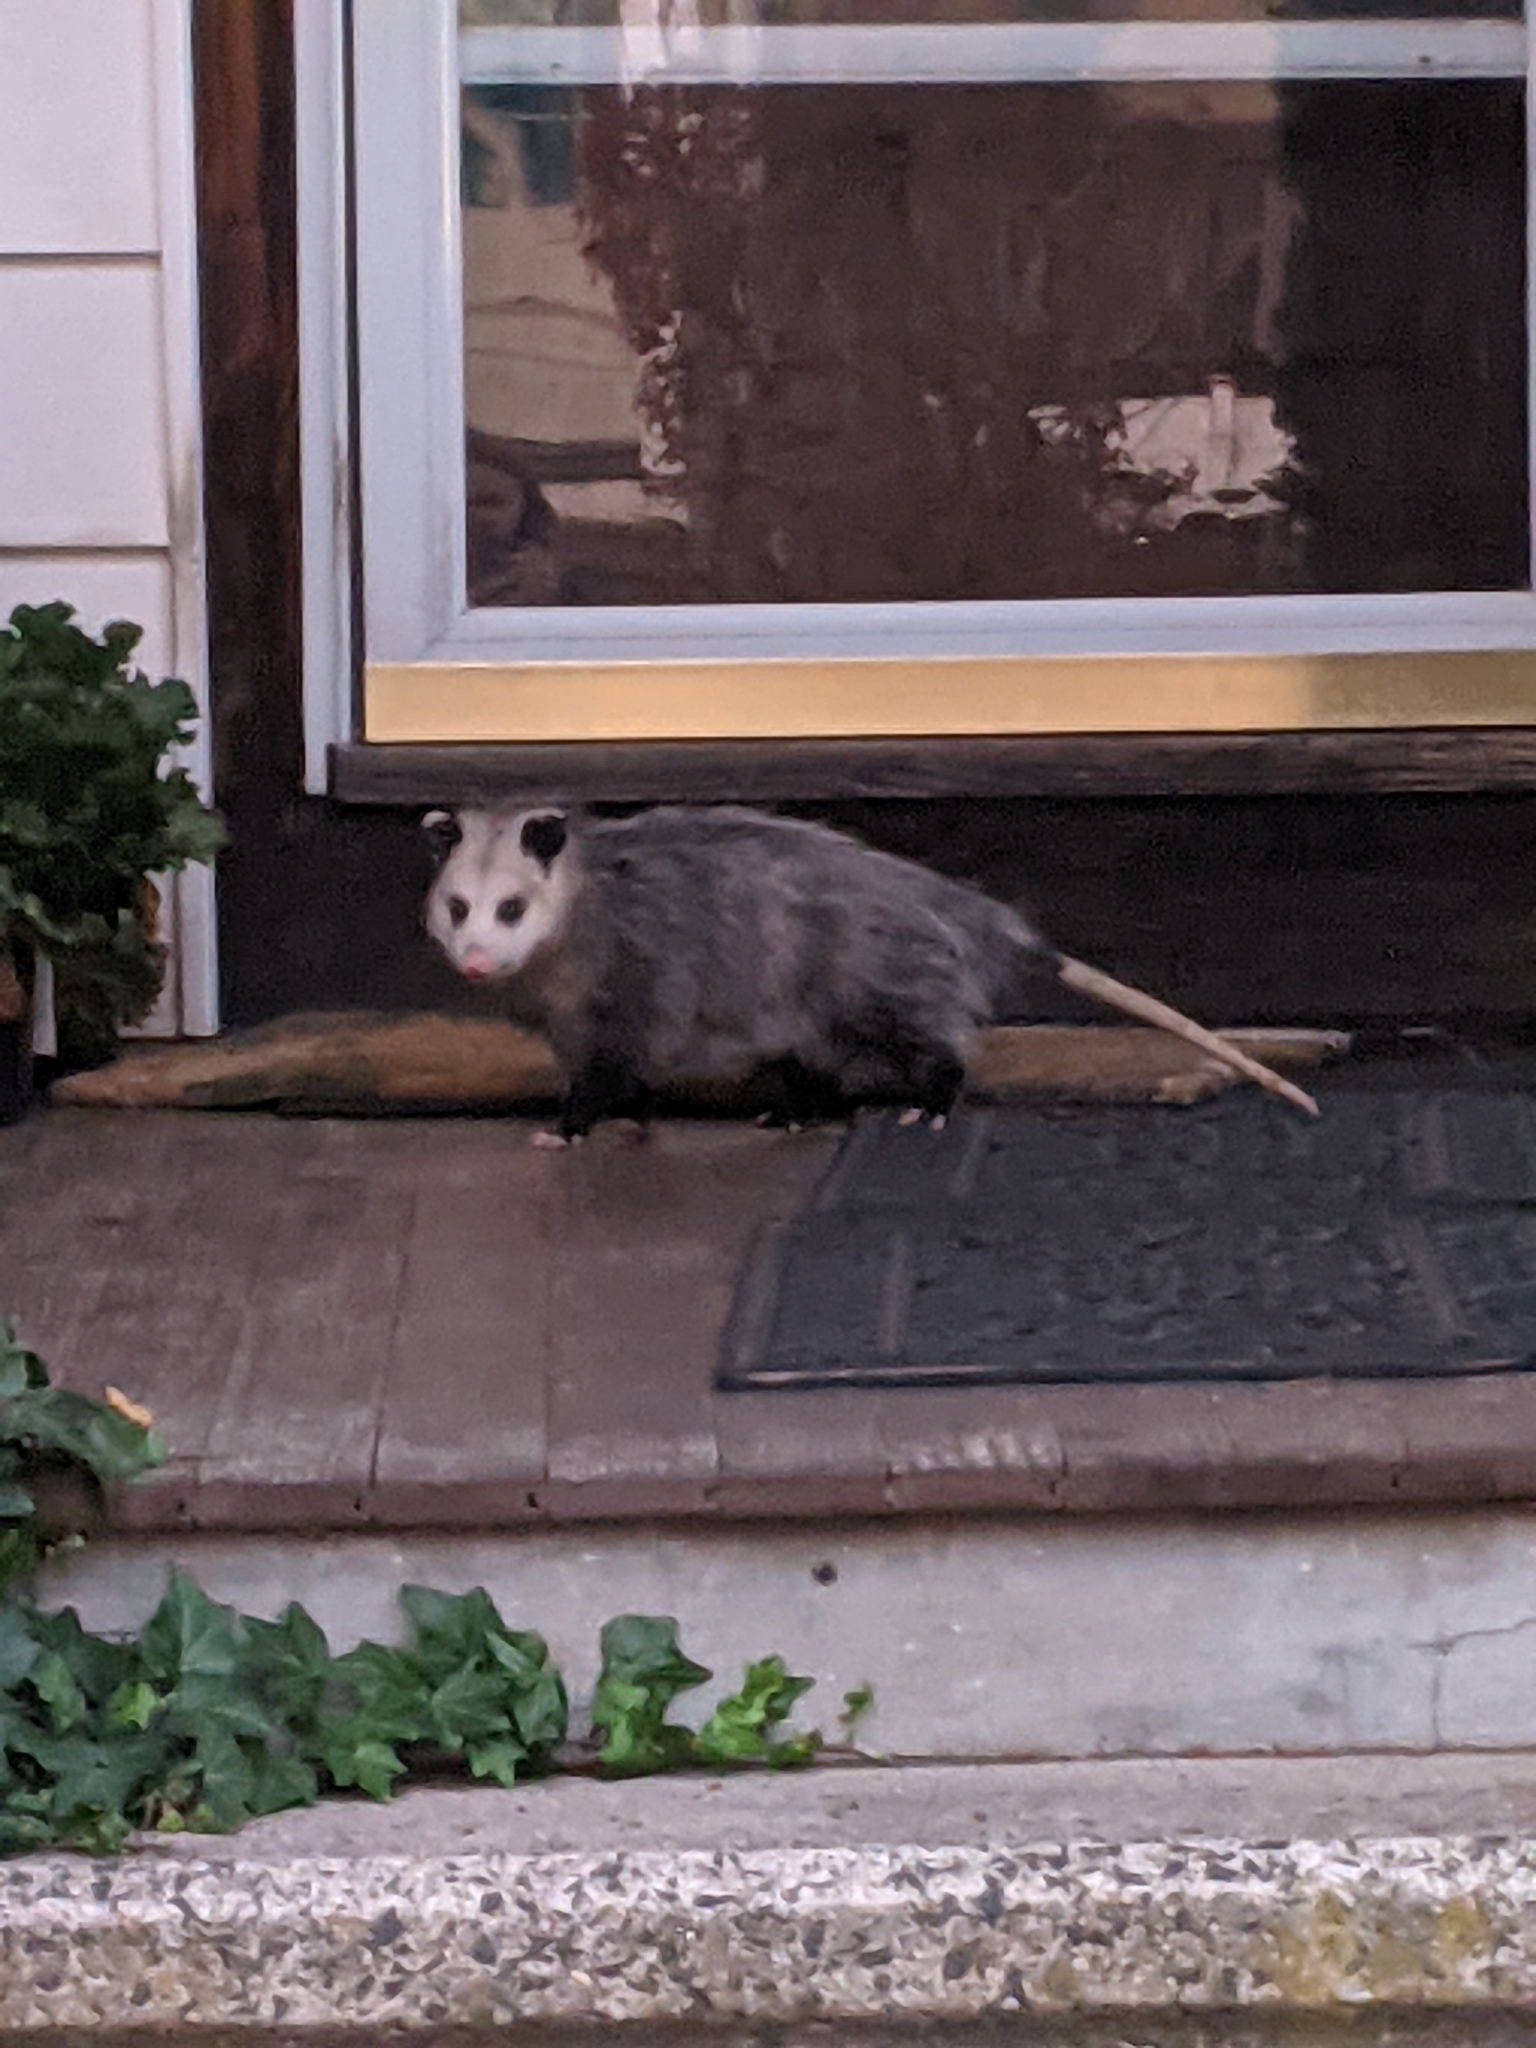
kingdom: Animalia
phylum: Chordata
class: Mammalia
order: Didelphimorphia
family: Didelphidae
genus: Didelphis
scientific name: Didelphis virginiana
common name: Virginia opossum
